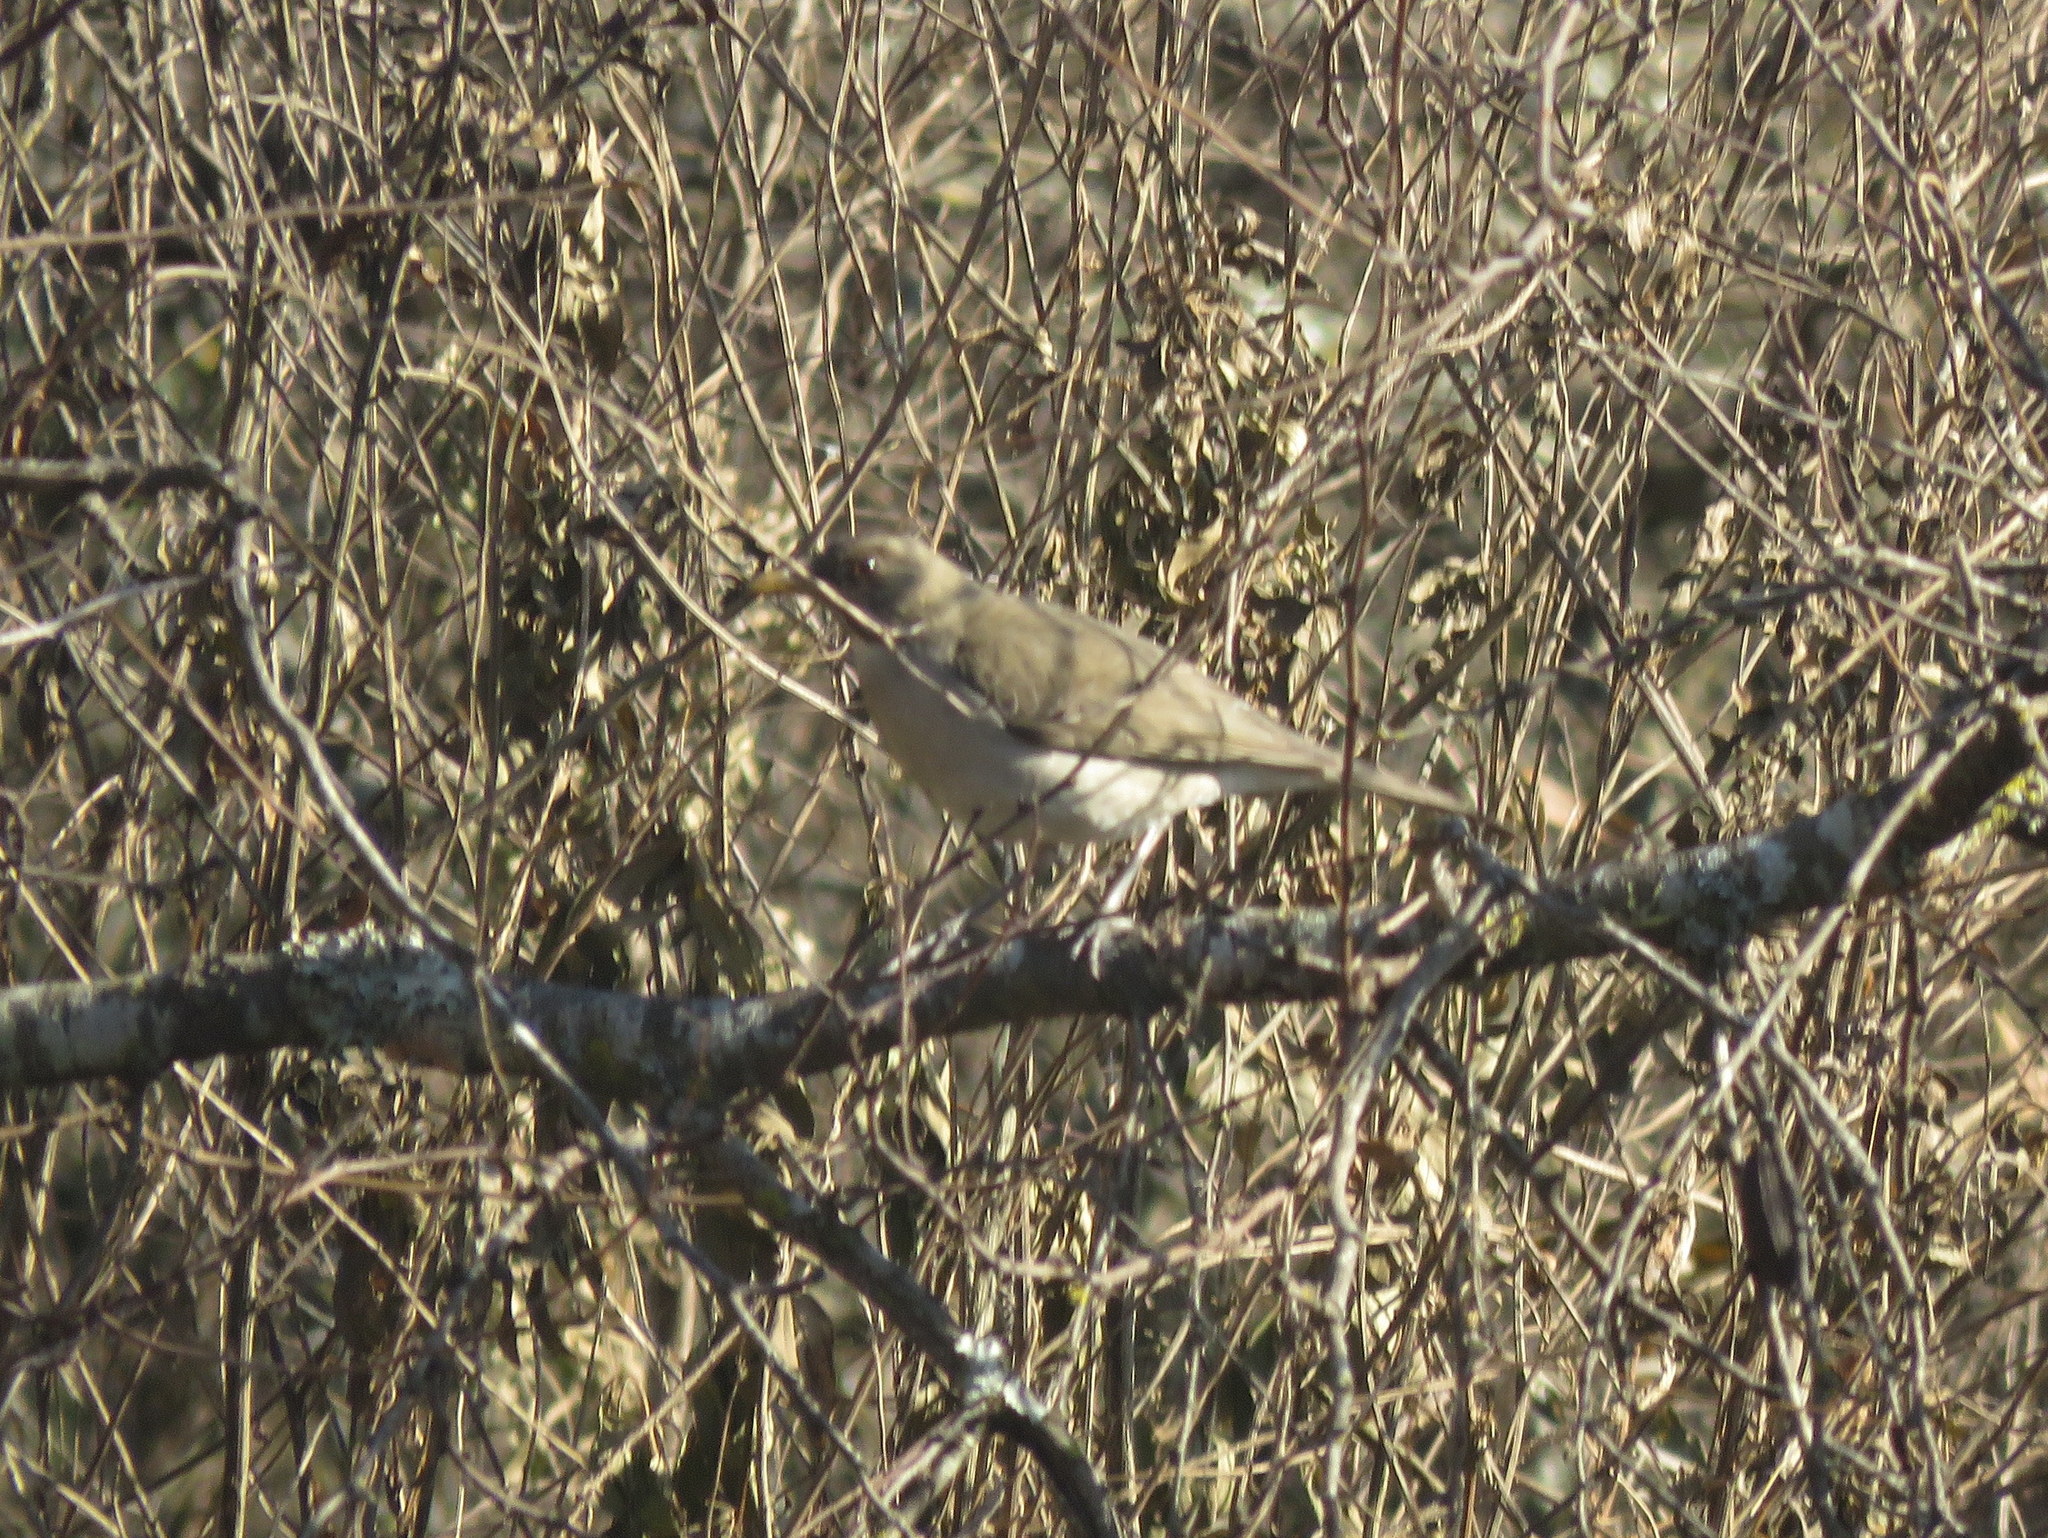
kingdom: Animalia
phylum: Chordata
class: Aves
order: Passeriformes
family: Turdidae
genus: Turdus
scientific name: Turdus amaurochalinus
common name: Creamy-bellied thrush
